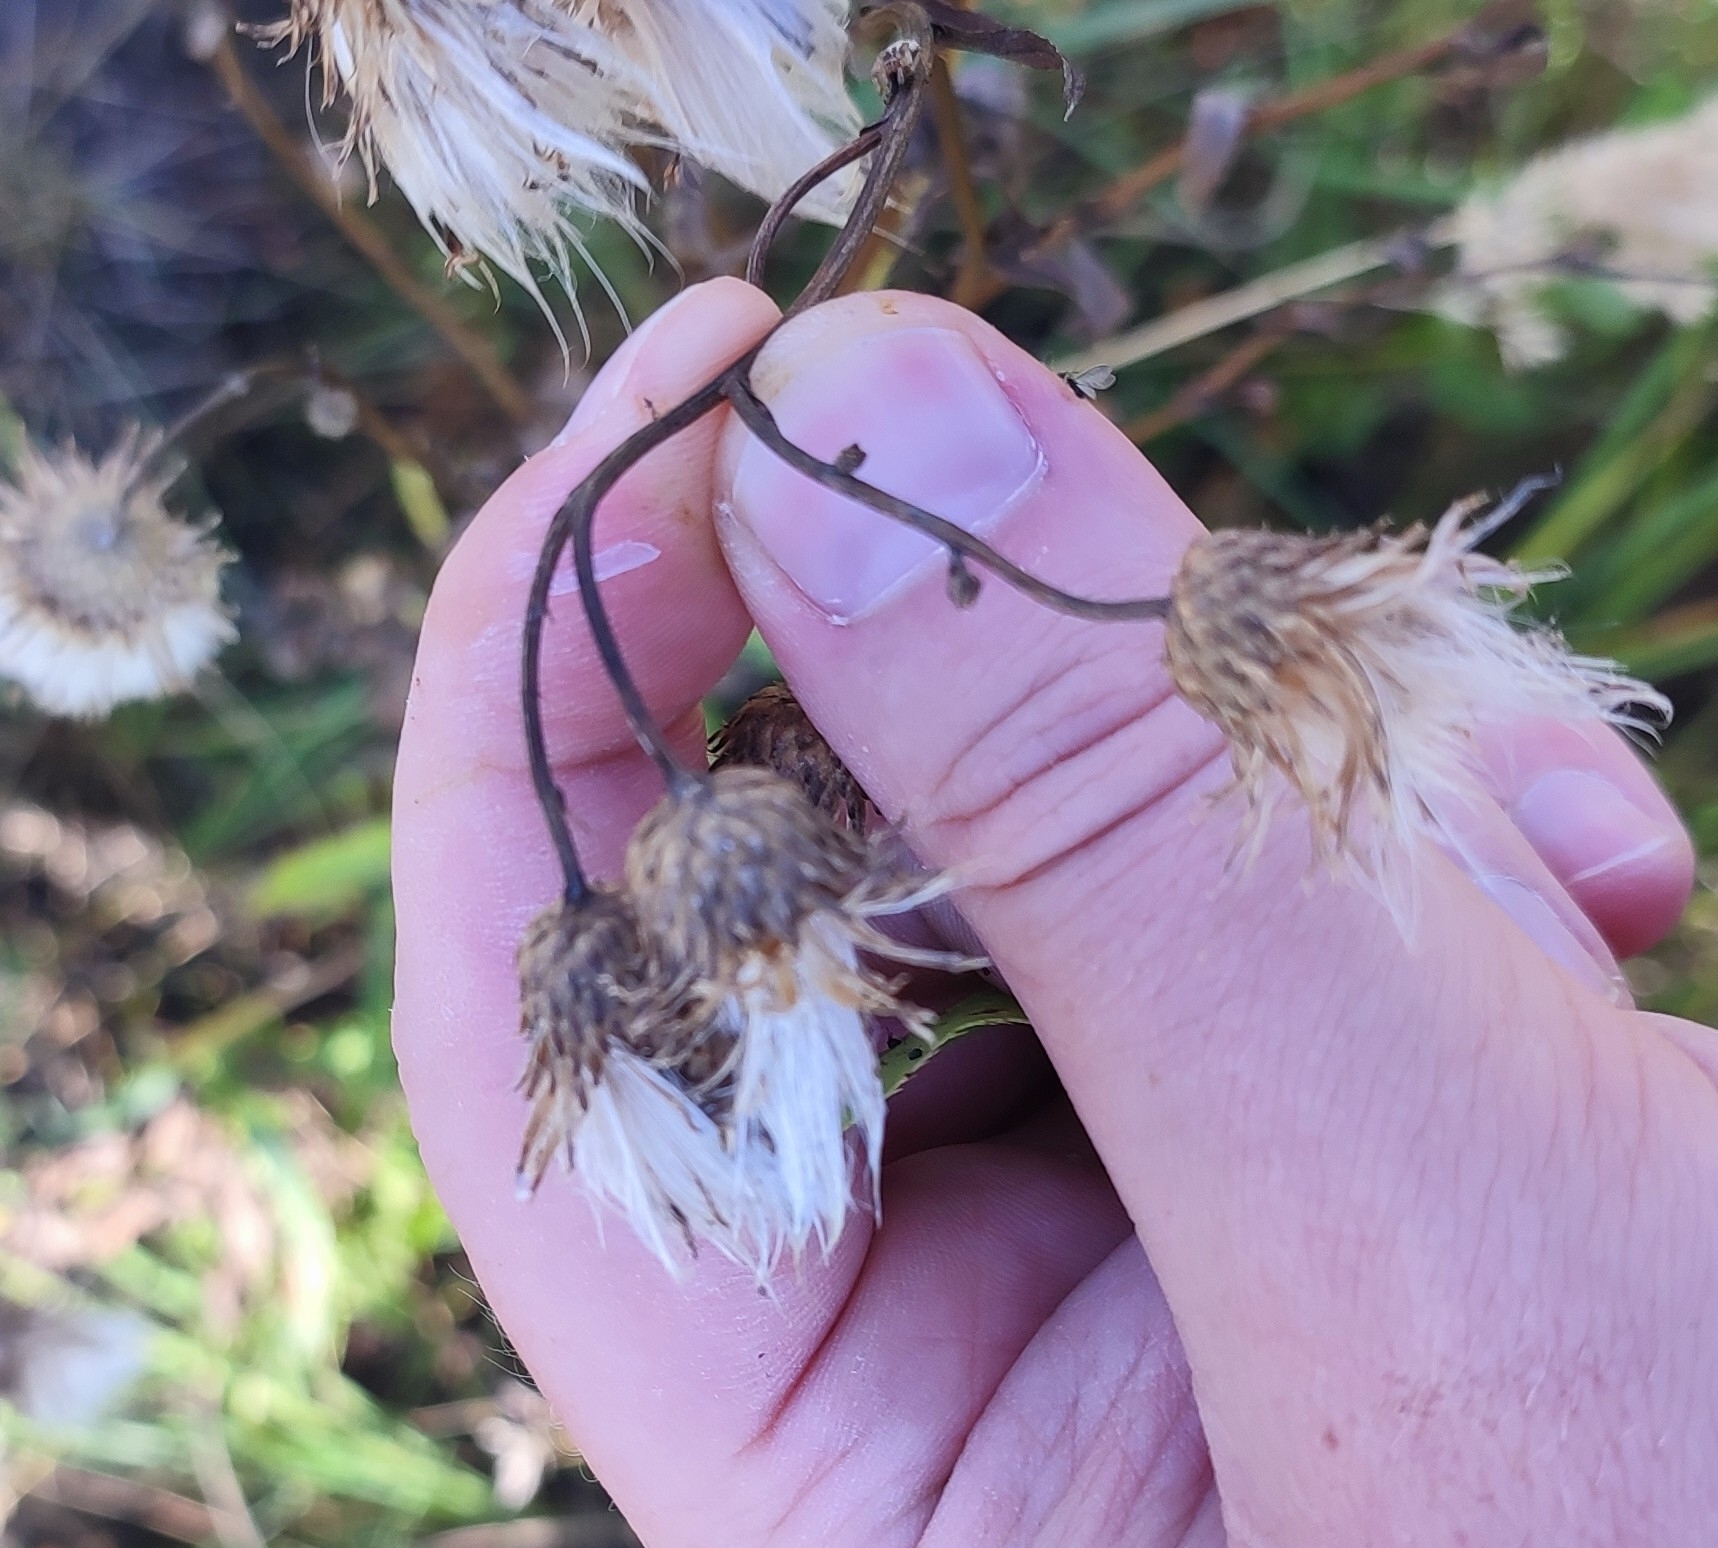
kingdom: Plantae
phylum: Tracheophyta
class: Magnoliopsida
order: Asterales
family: Asteraceae
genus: Cirsium
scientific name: Cirsium arvense
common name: Creeping thistle
